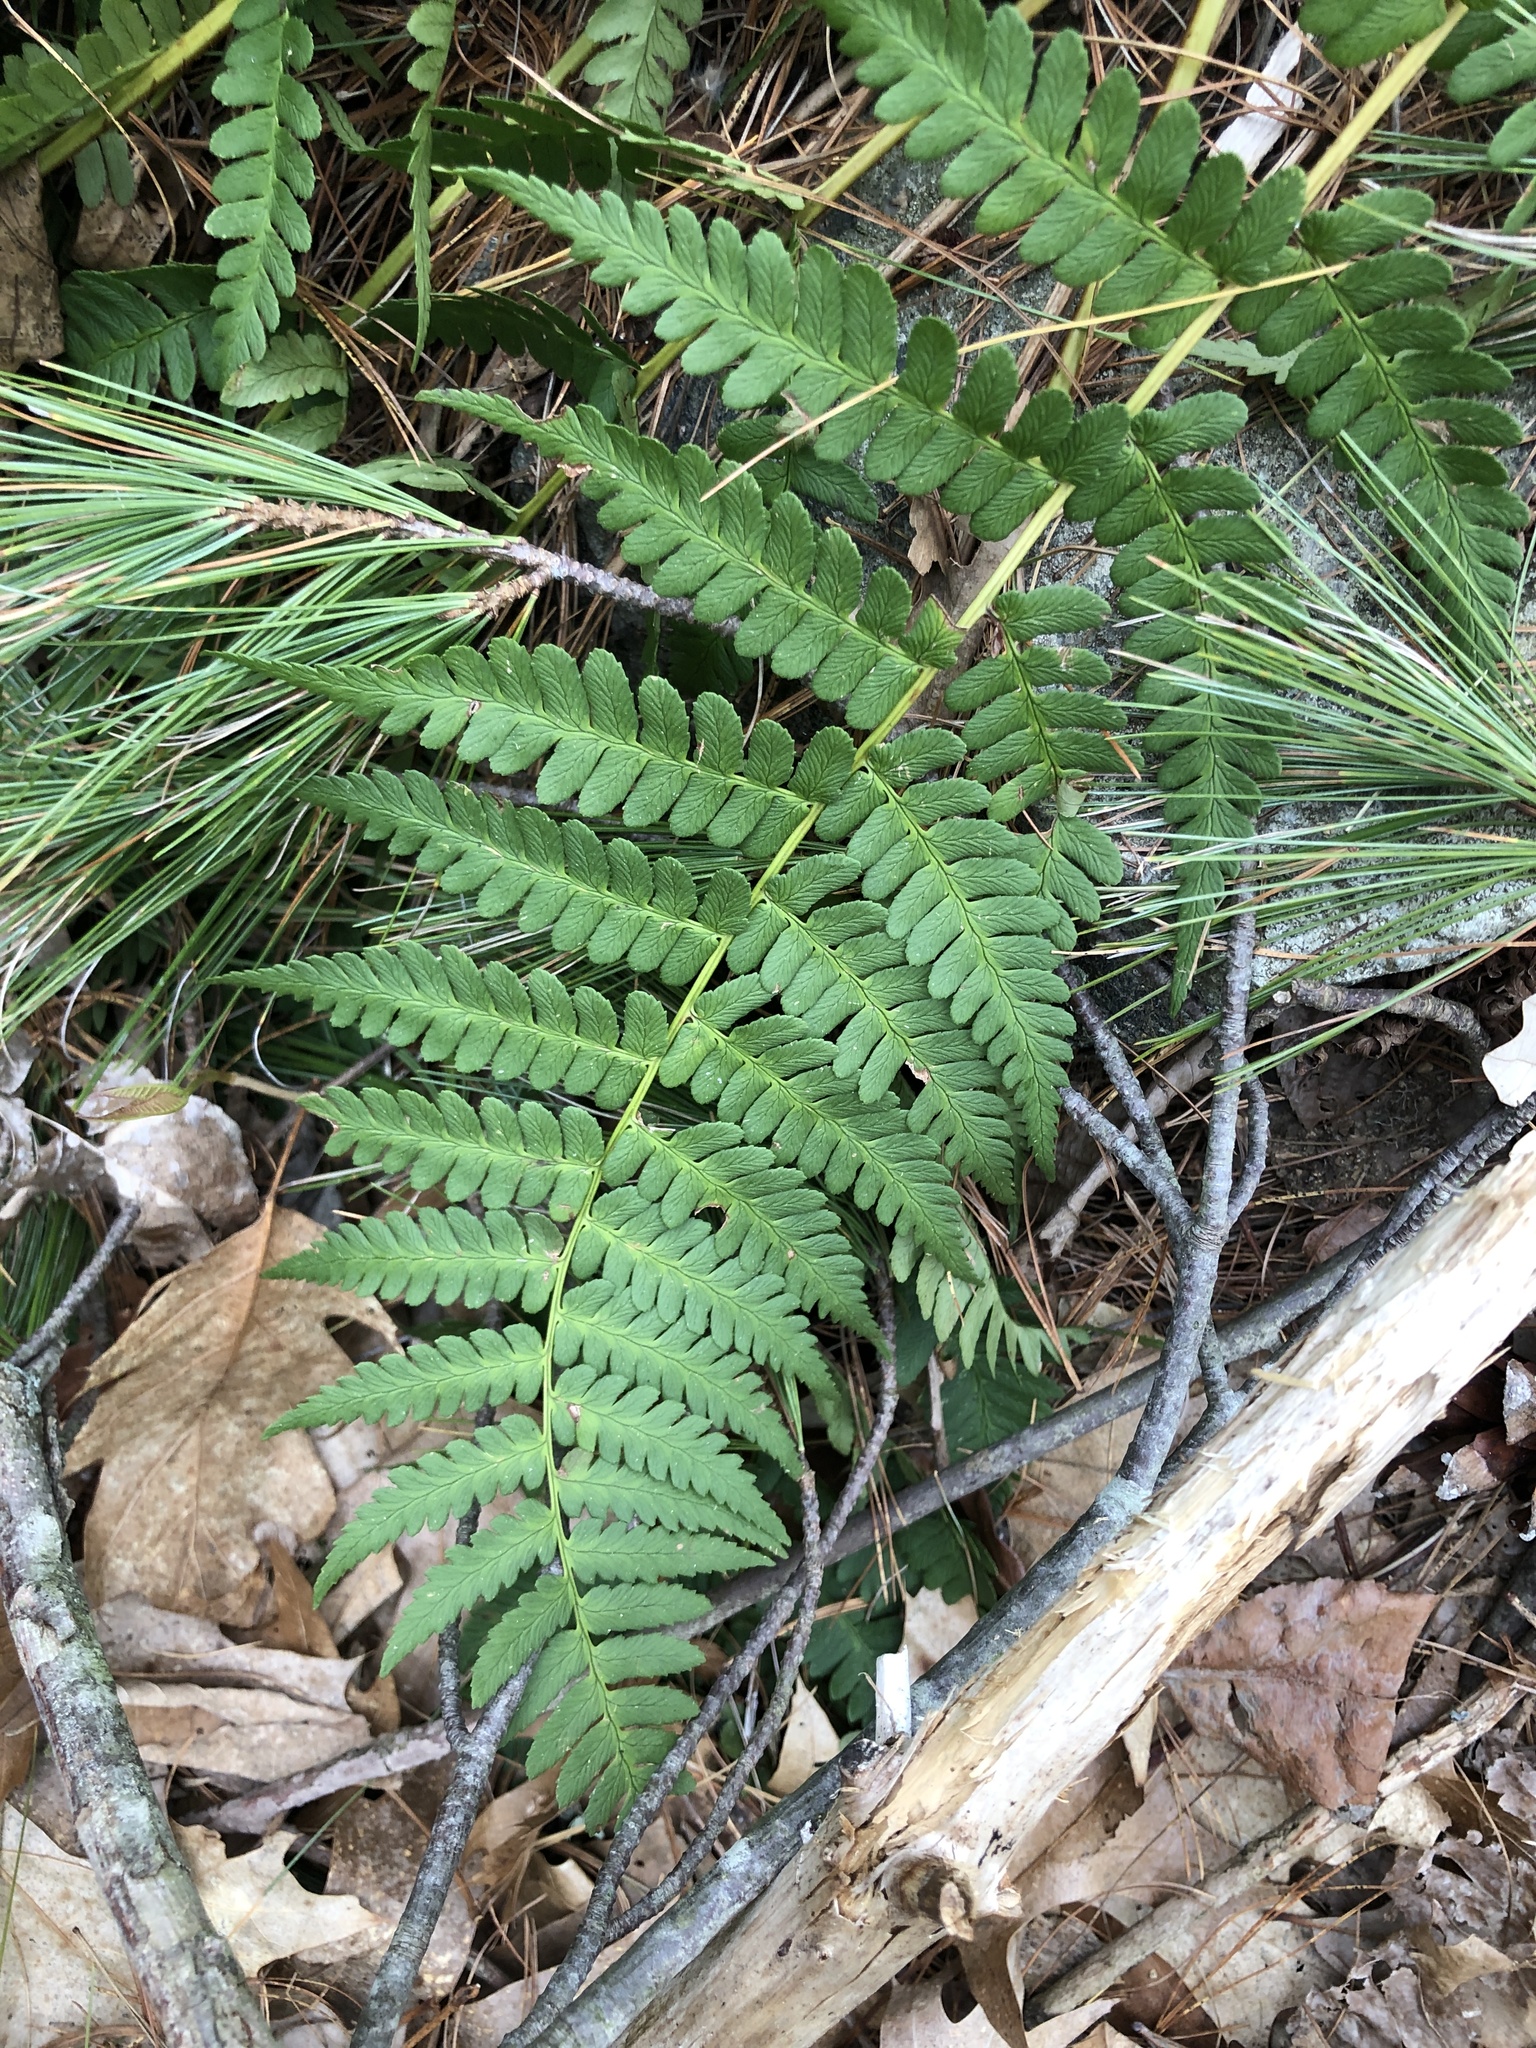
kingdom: Plantae
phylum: Tracheophyta
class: Polypodiopsida
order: Polypodiales
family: Dryopteridaceae
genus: Dryopteris
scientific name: Dryopteris marginalis
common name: Marginal wood fern
